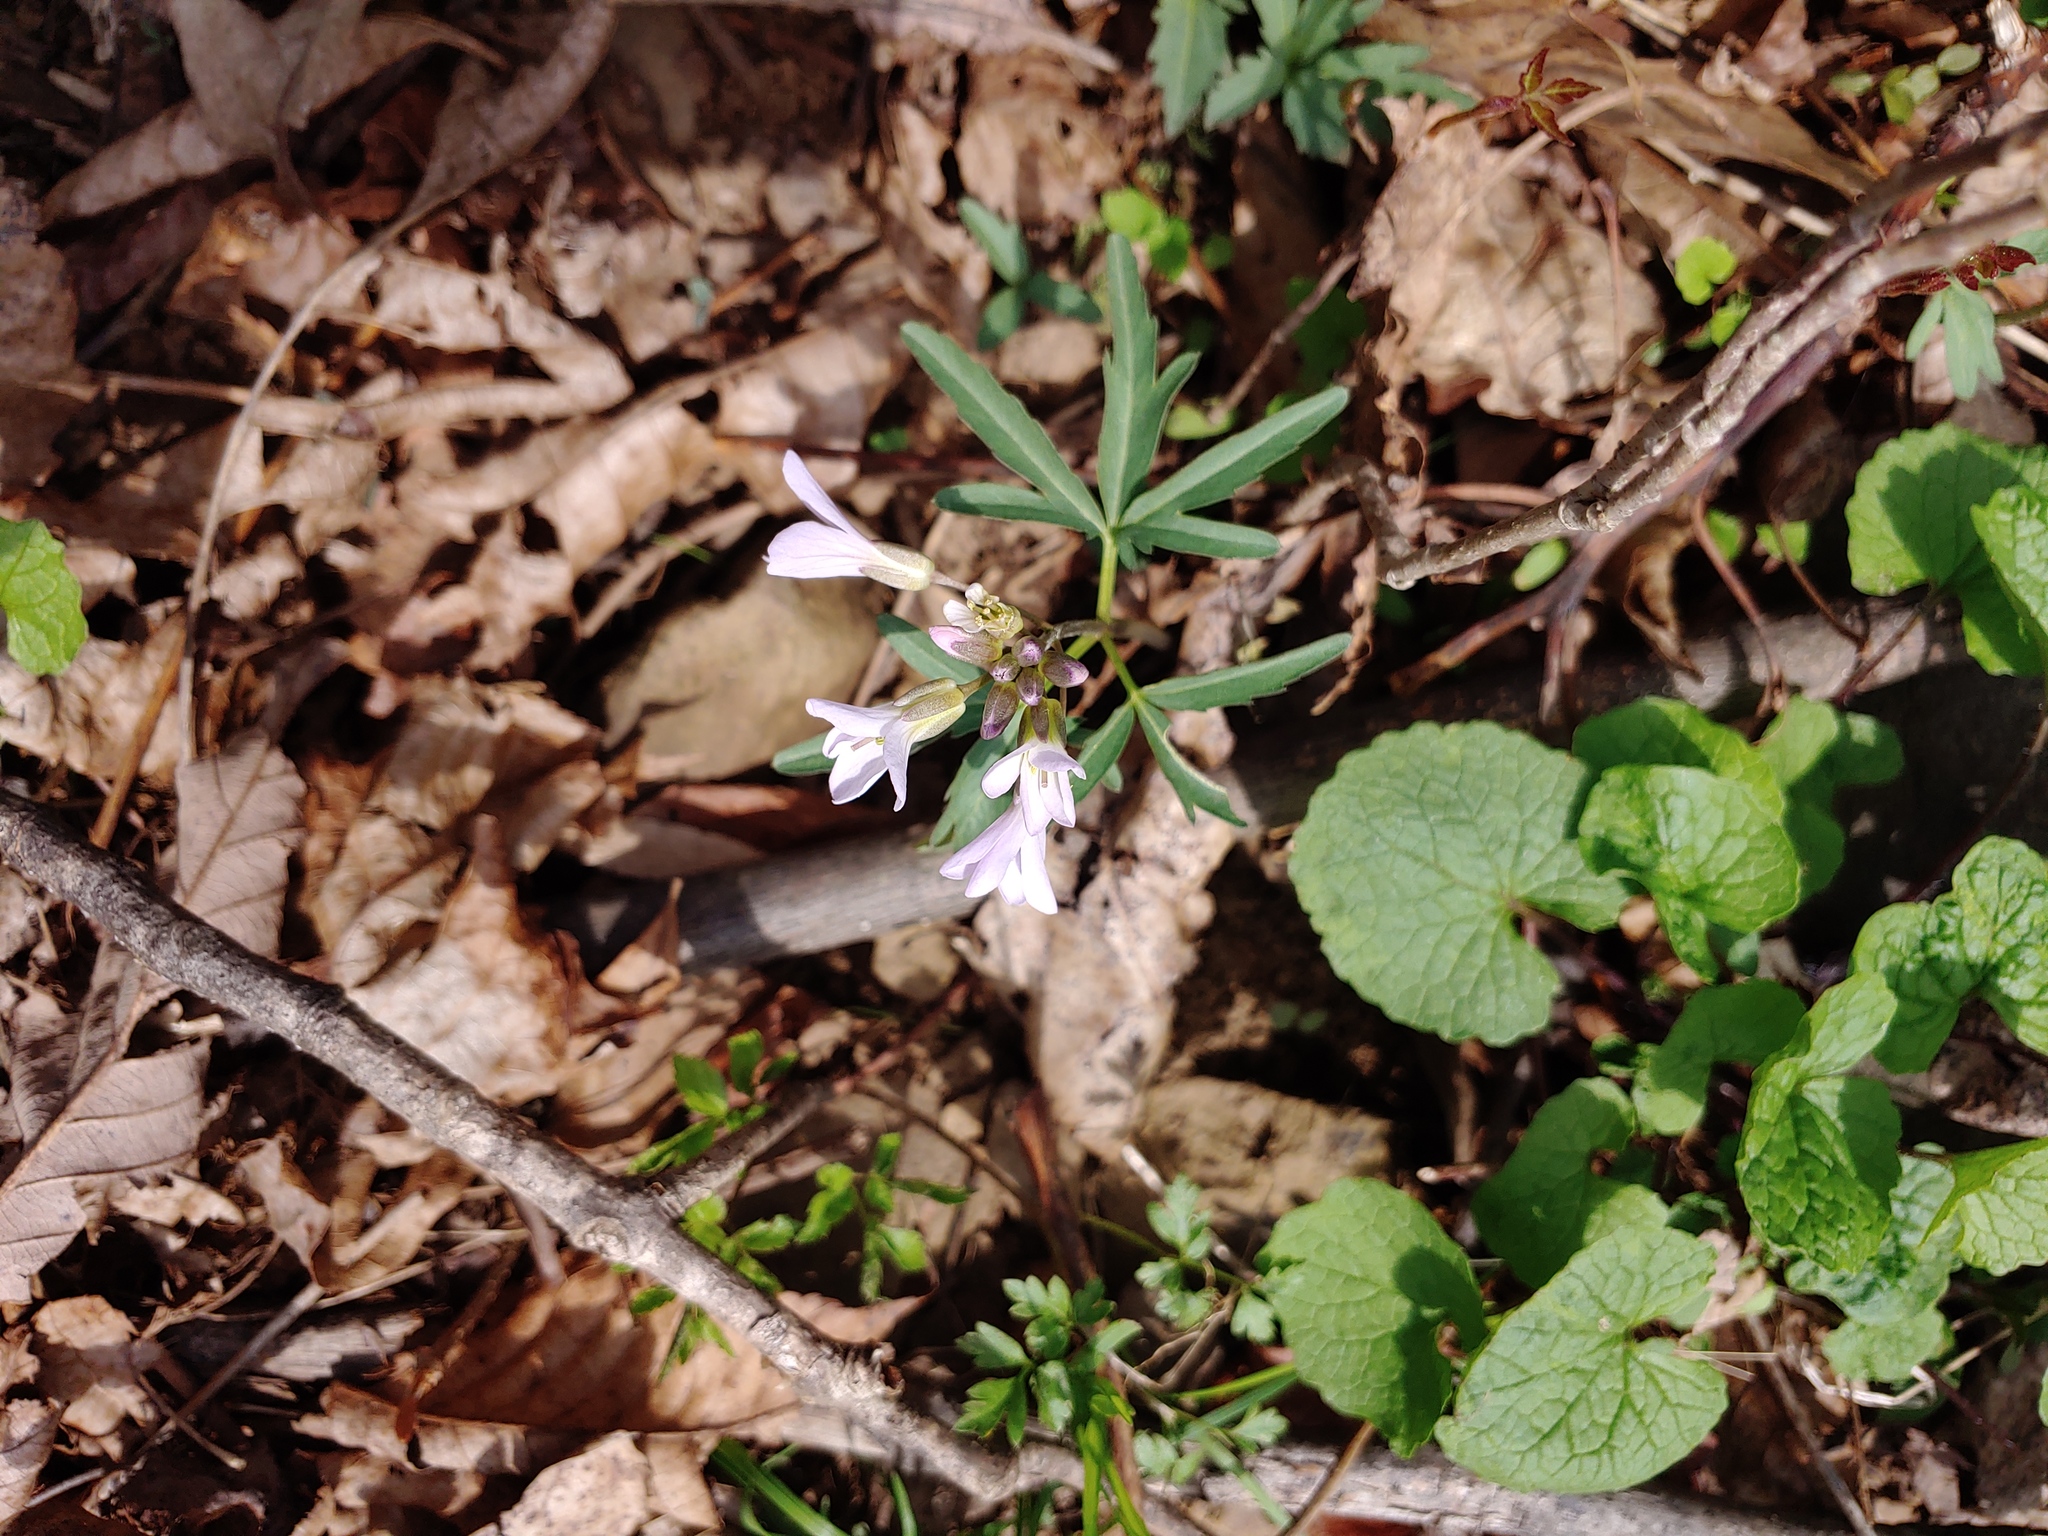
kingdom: Plantae
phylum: Tracheophyta
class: Magnoliopsida
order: Brassicales
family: Brassicaceae
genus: Cardamine
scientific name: Cardamine concatenata
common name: Cut-leaf toothcup
